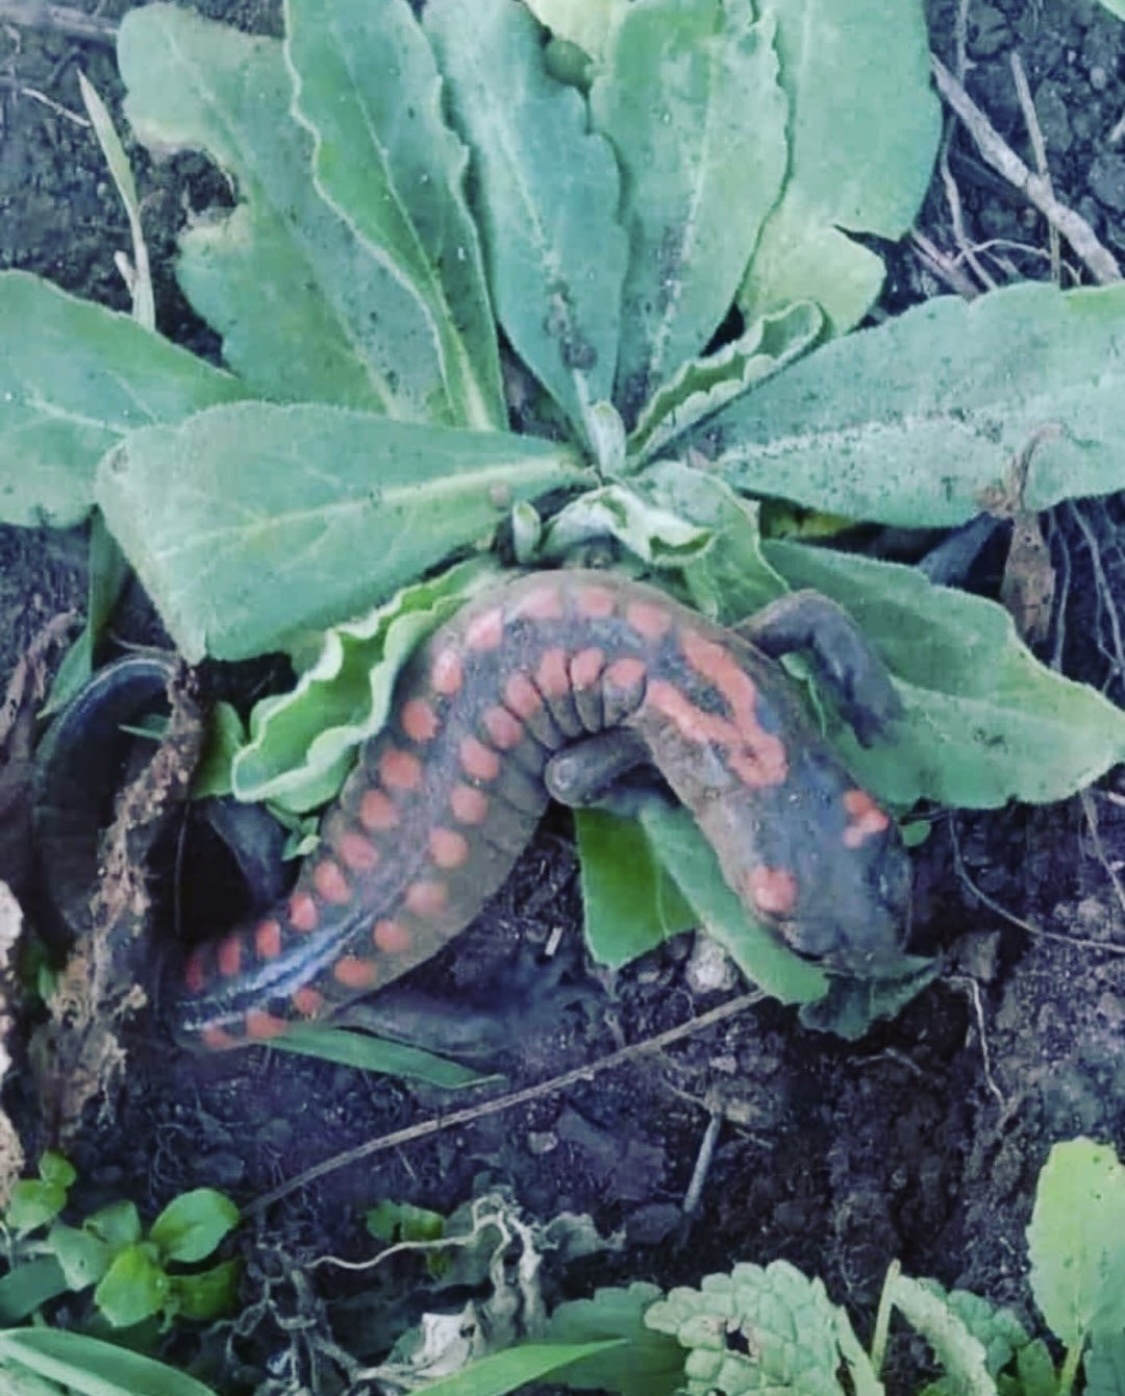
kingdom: Animalia
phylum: Chordata
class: Amphibia
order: Caudata
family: Plethodontidae
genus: Isthmura
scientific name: Isthmura bellii
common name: Bell's false brook salamander
